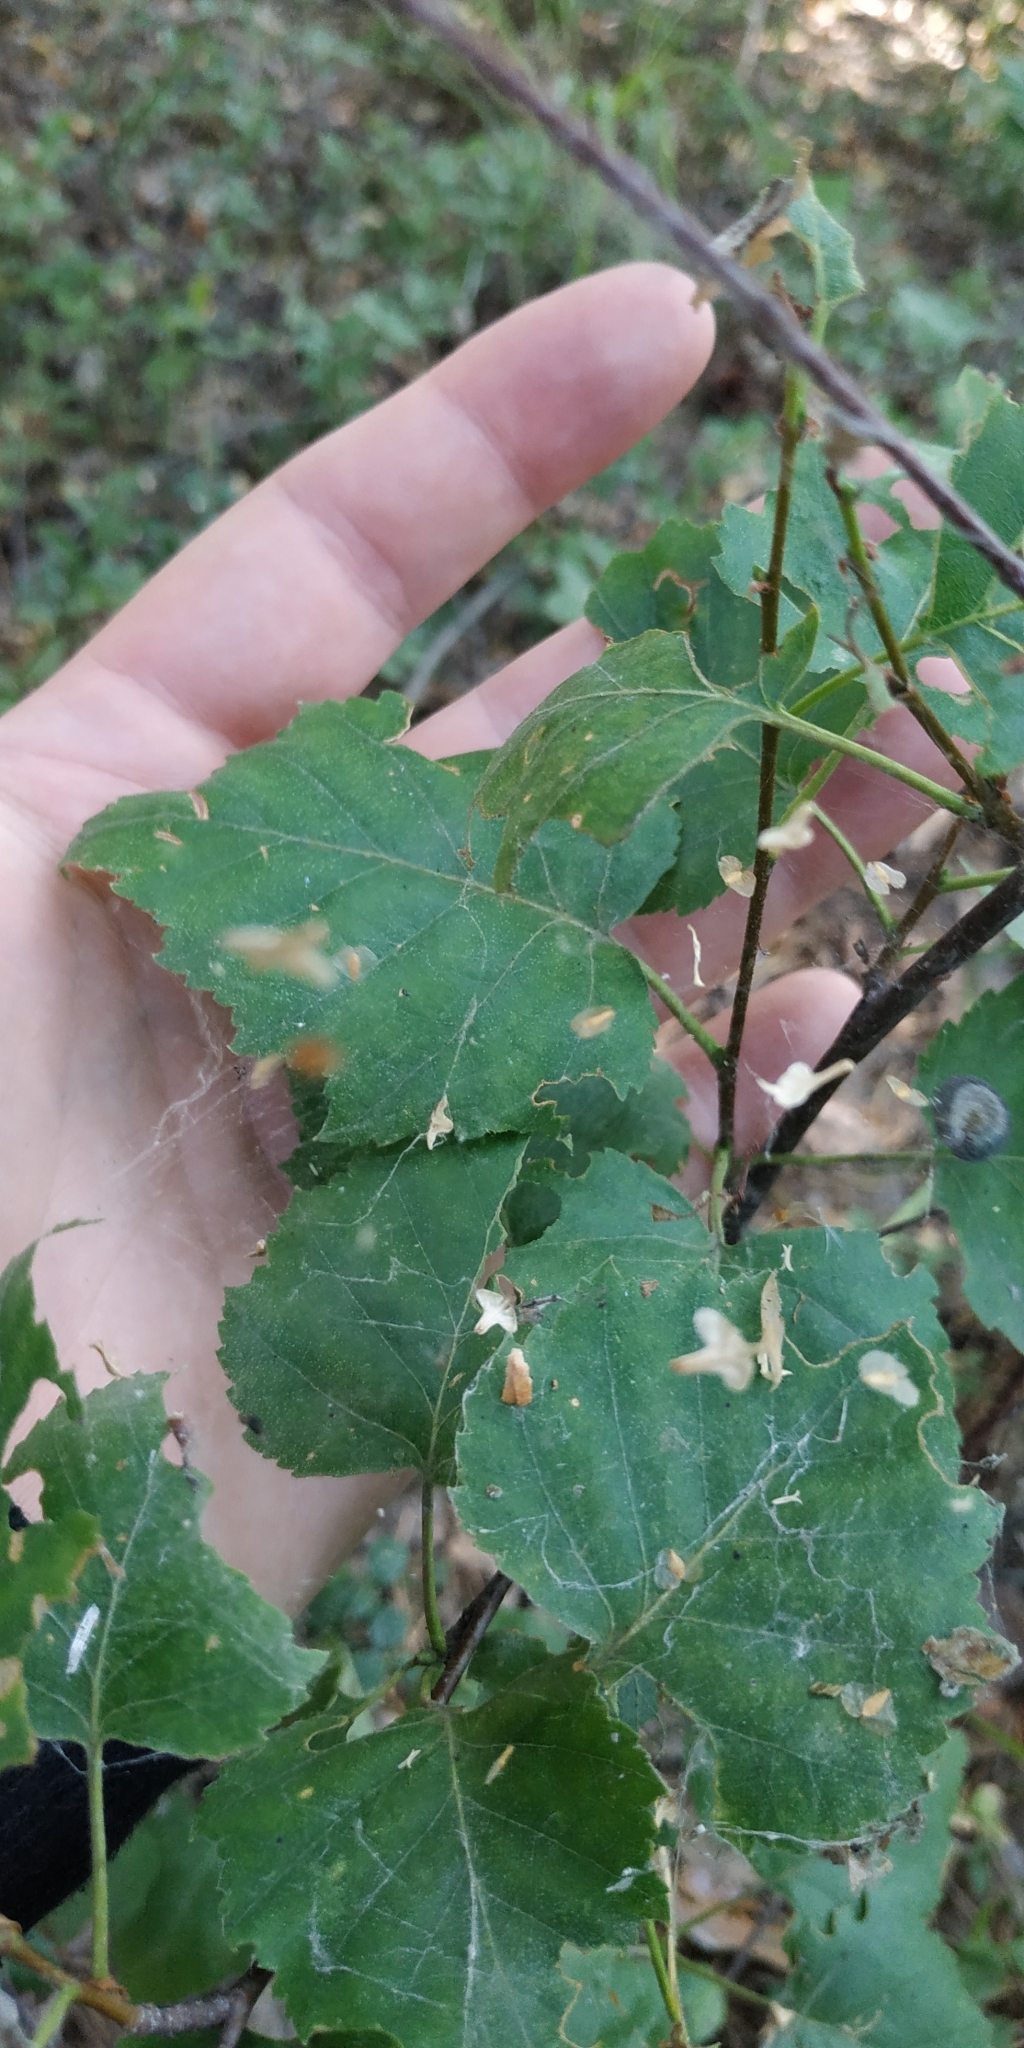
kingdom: Plantae
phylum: Tracheophyta
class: Magnoliopsida
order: Fagales
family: Betulaceae
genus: Betula
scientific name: Betula pubescens
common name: Downy birch
